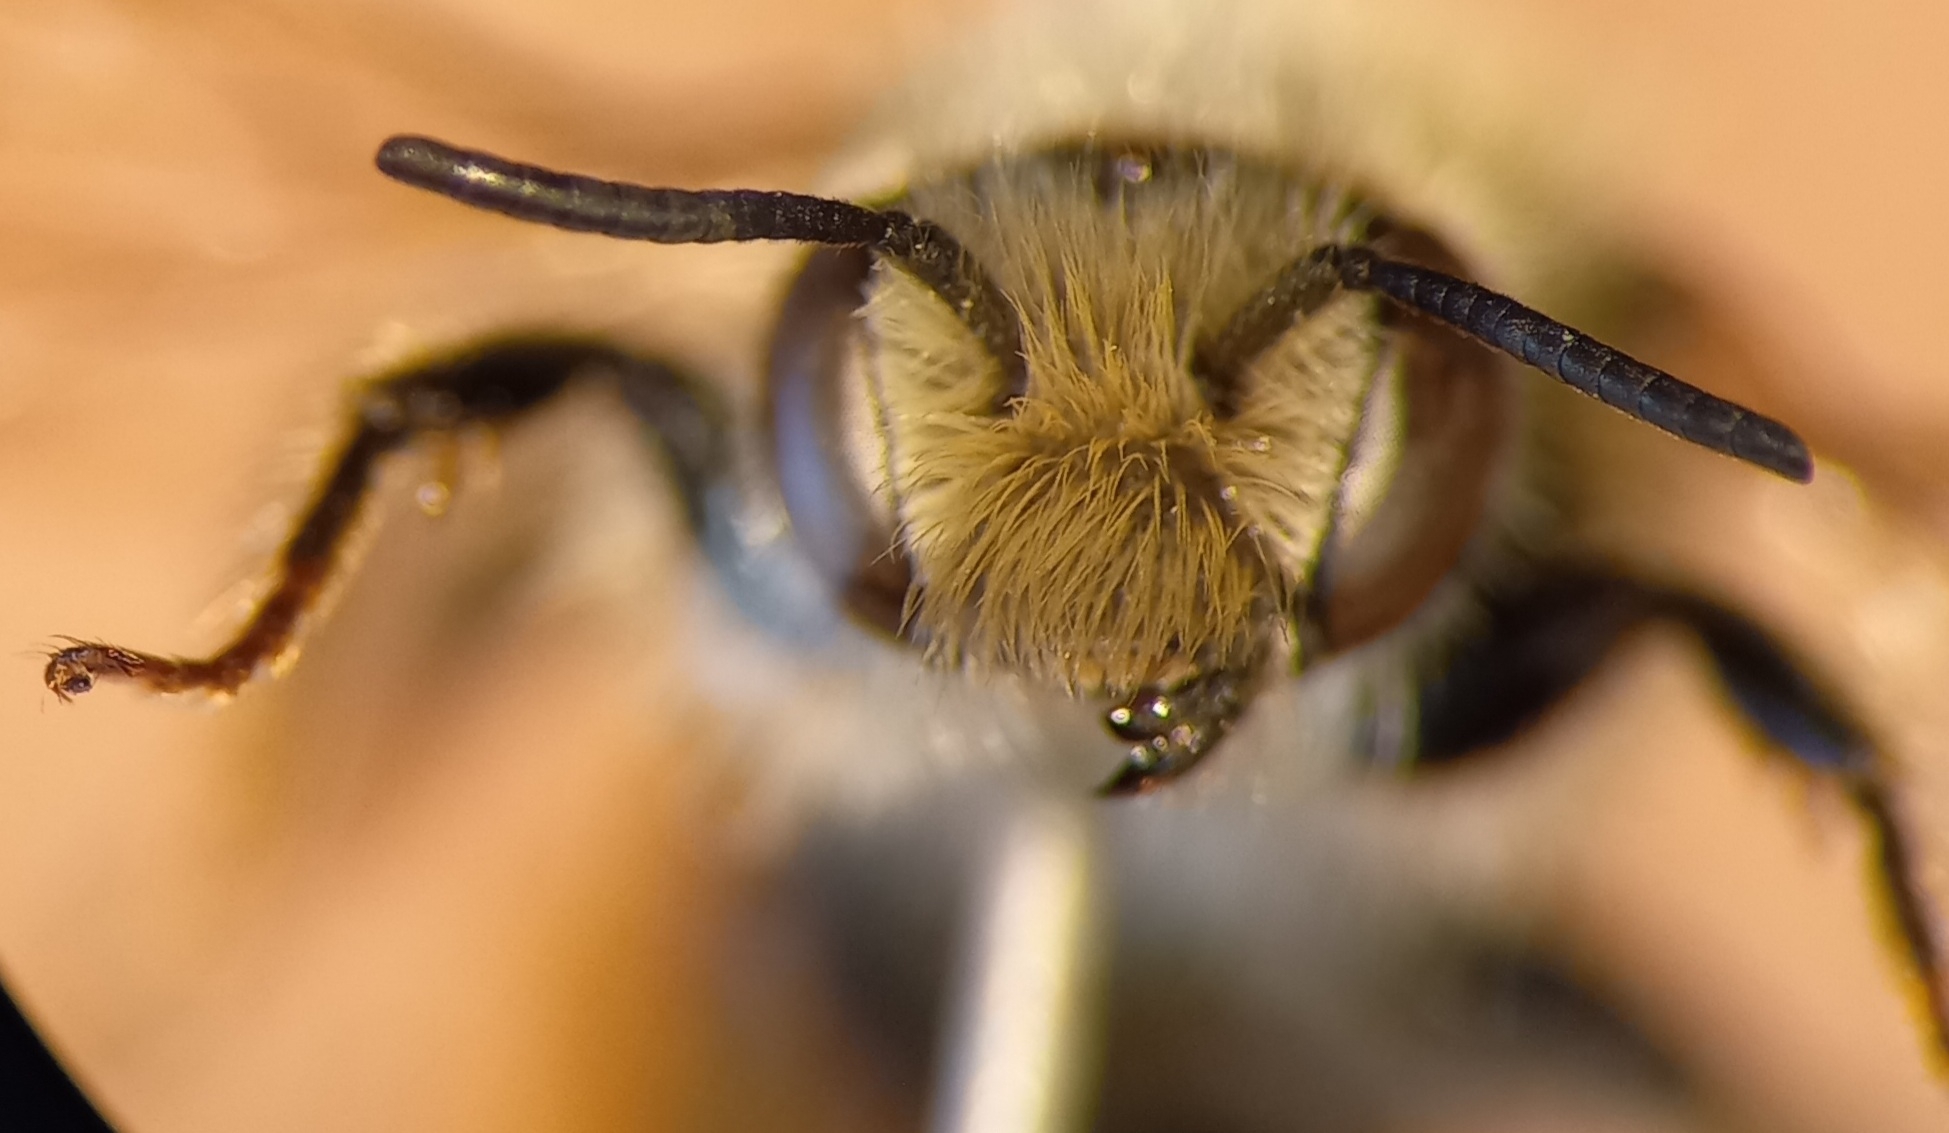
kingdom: Animalia
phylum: Arthropoda
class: Insecta
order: Hymenoptera
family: Megachilidae
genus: Osmia
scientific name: Osmia rufohirta
